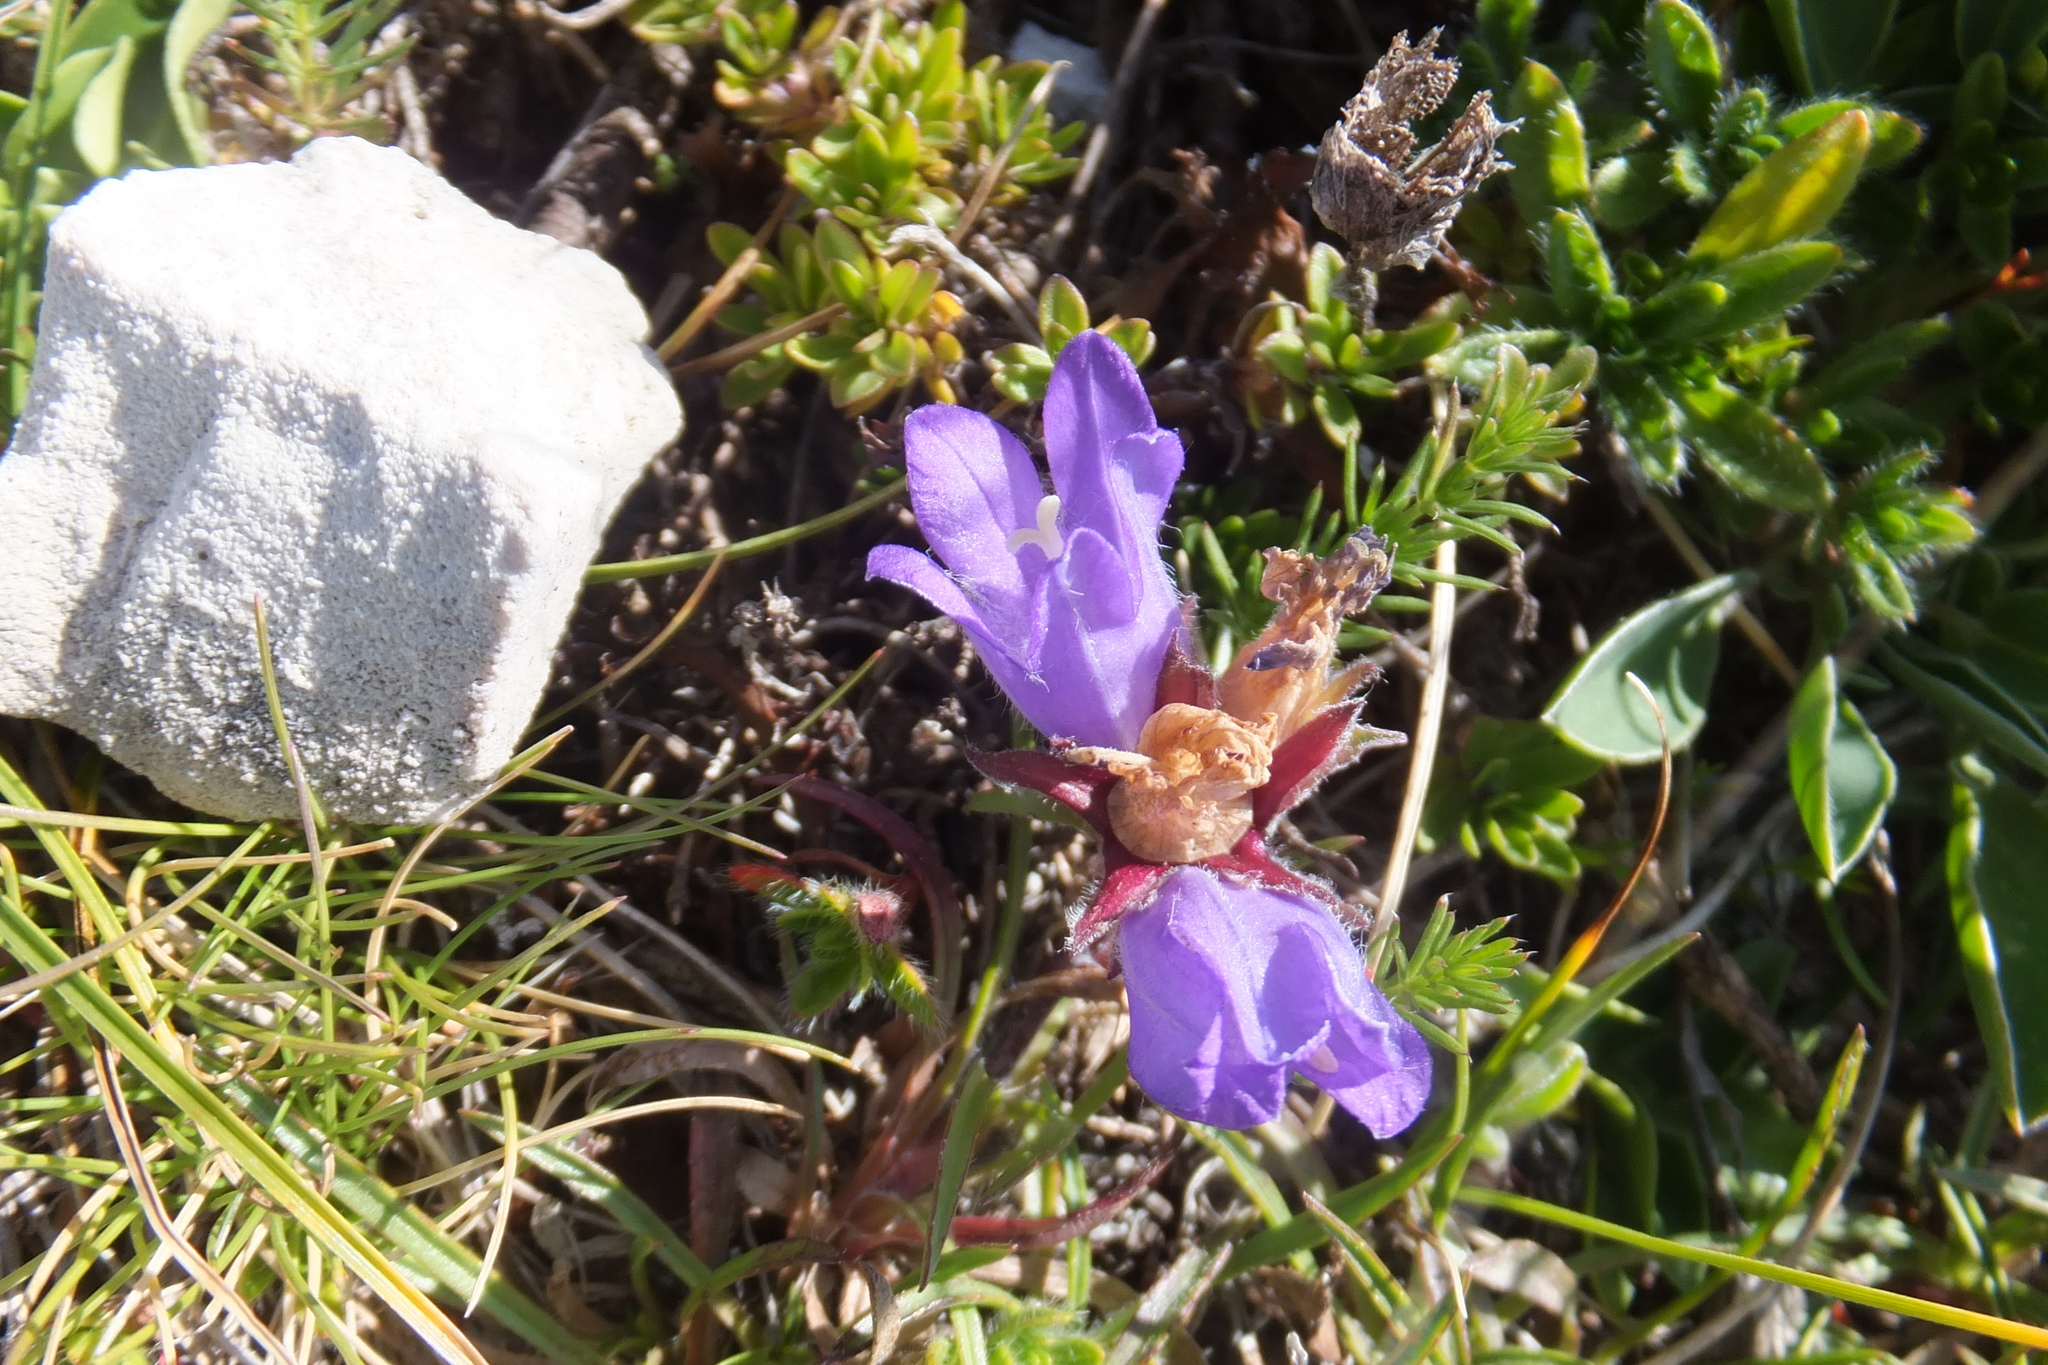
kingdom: Plantae
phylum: Tracheophyta
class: Magnoliopsida
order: Asterales
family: Campanulaceae
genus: Edraianthus
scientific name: Edraianthus graminifolius
